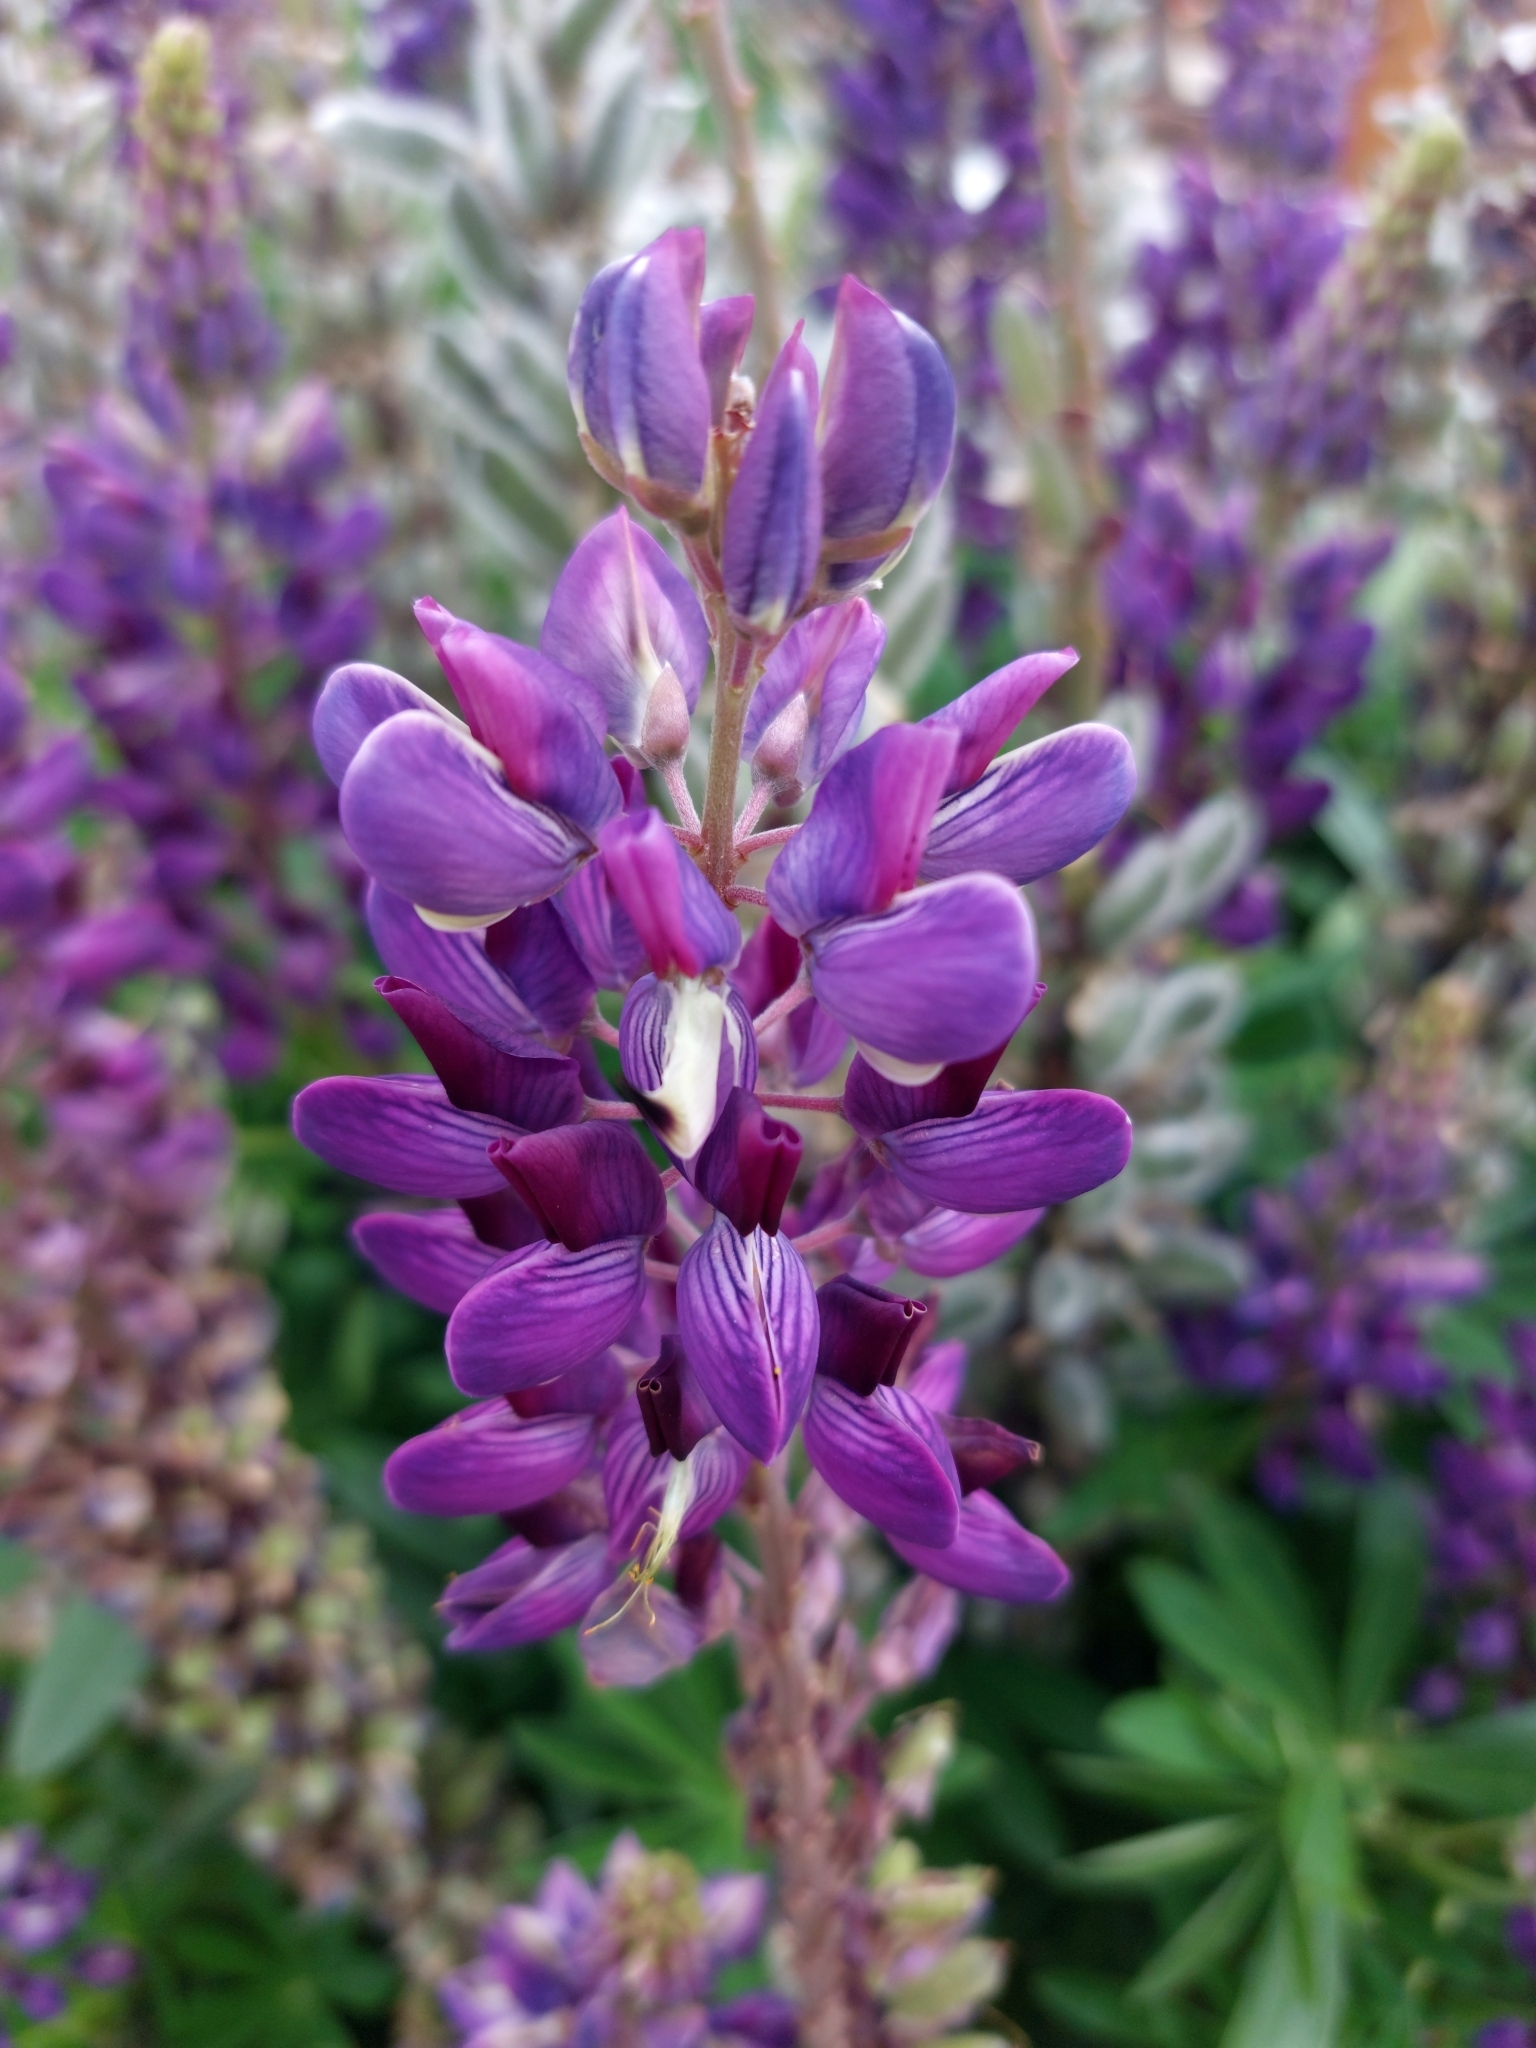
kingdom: Plantae
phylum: Tracheophyta
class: Magnoliopsida
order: Fabales
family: Fabaceae
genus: Lupinus
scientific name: Lupinus polyphyllus
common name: Garden lupin
